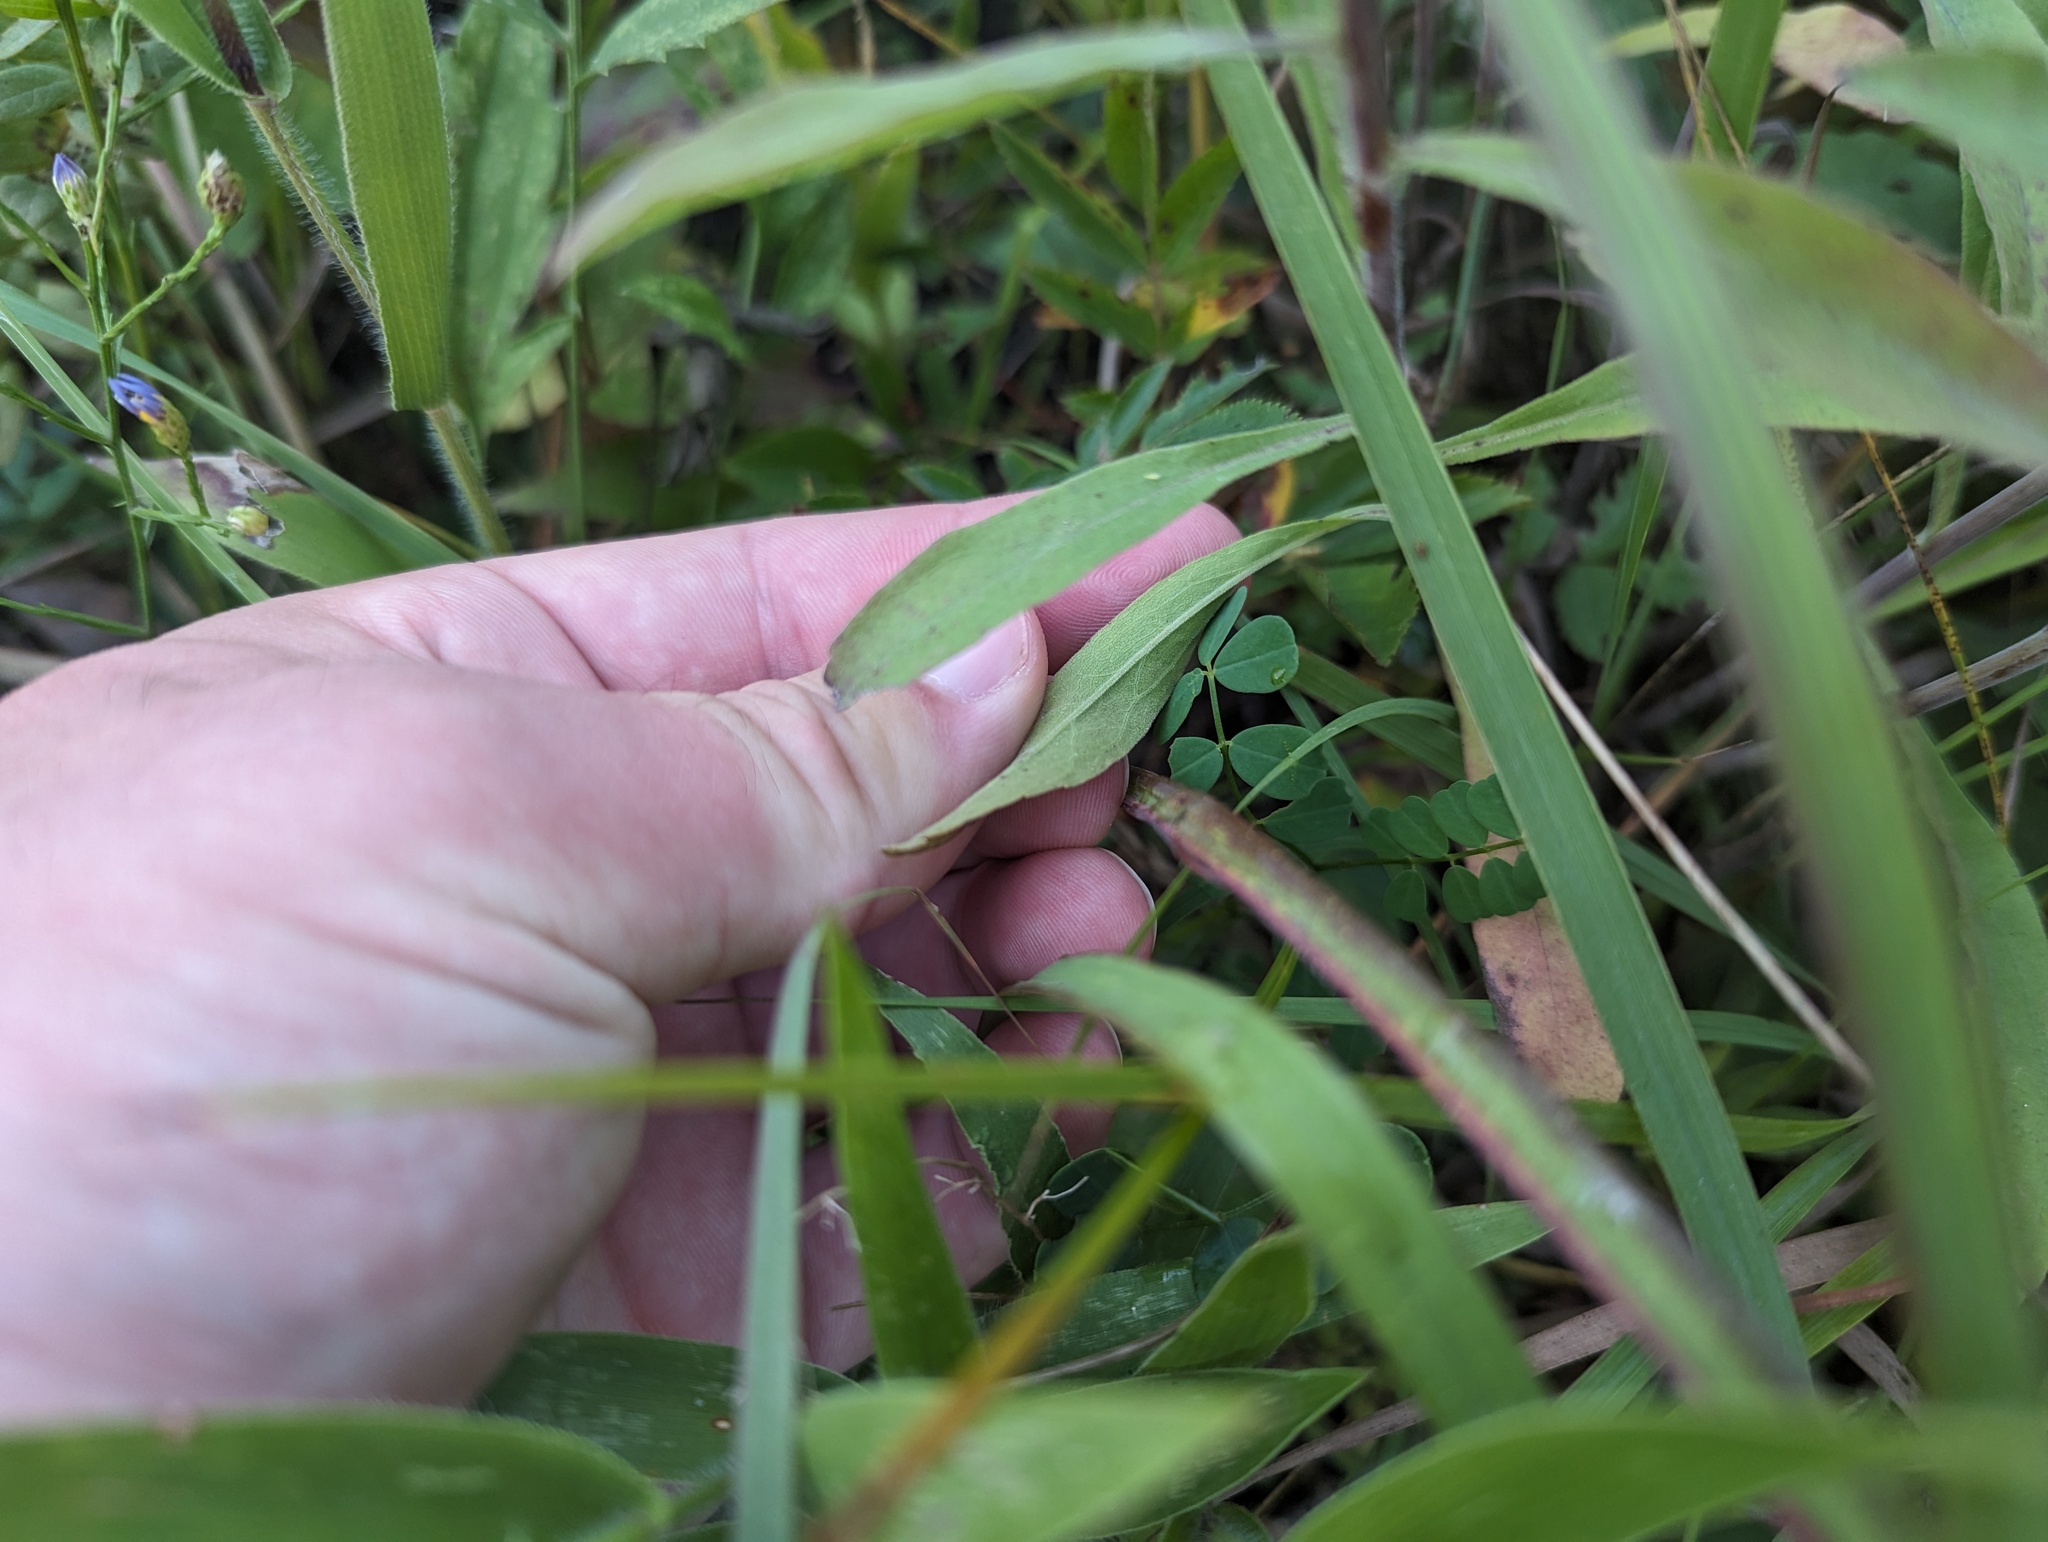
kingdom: Plantae
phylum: Tracheophyta
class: Magnoliopsida
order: Asterales
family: Asteraceae
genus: Solidago
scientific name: Solidago nemoralis
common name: Grey goldenrod
